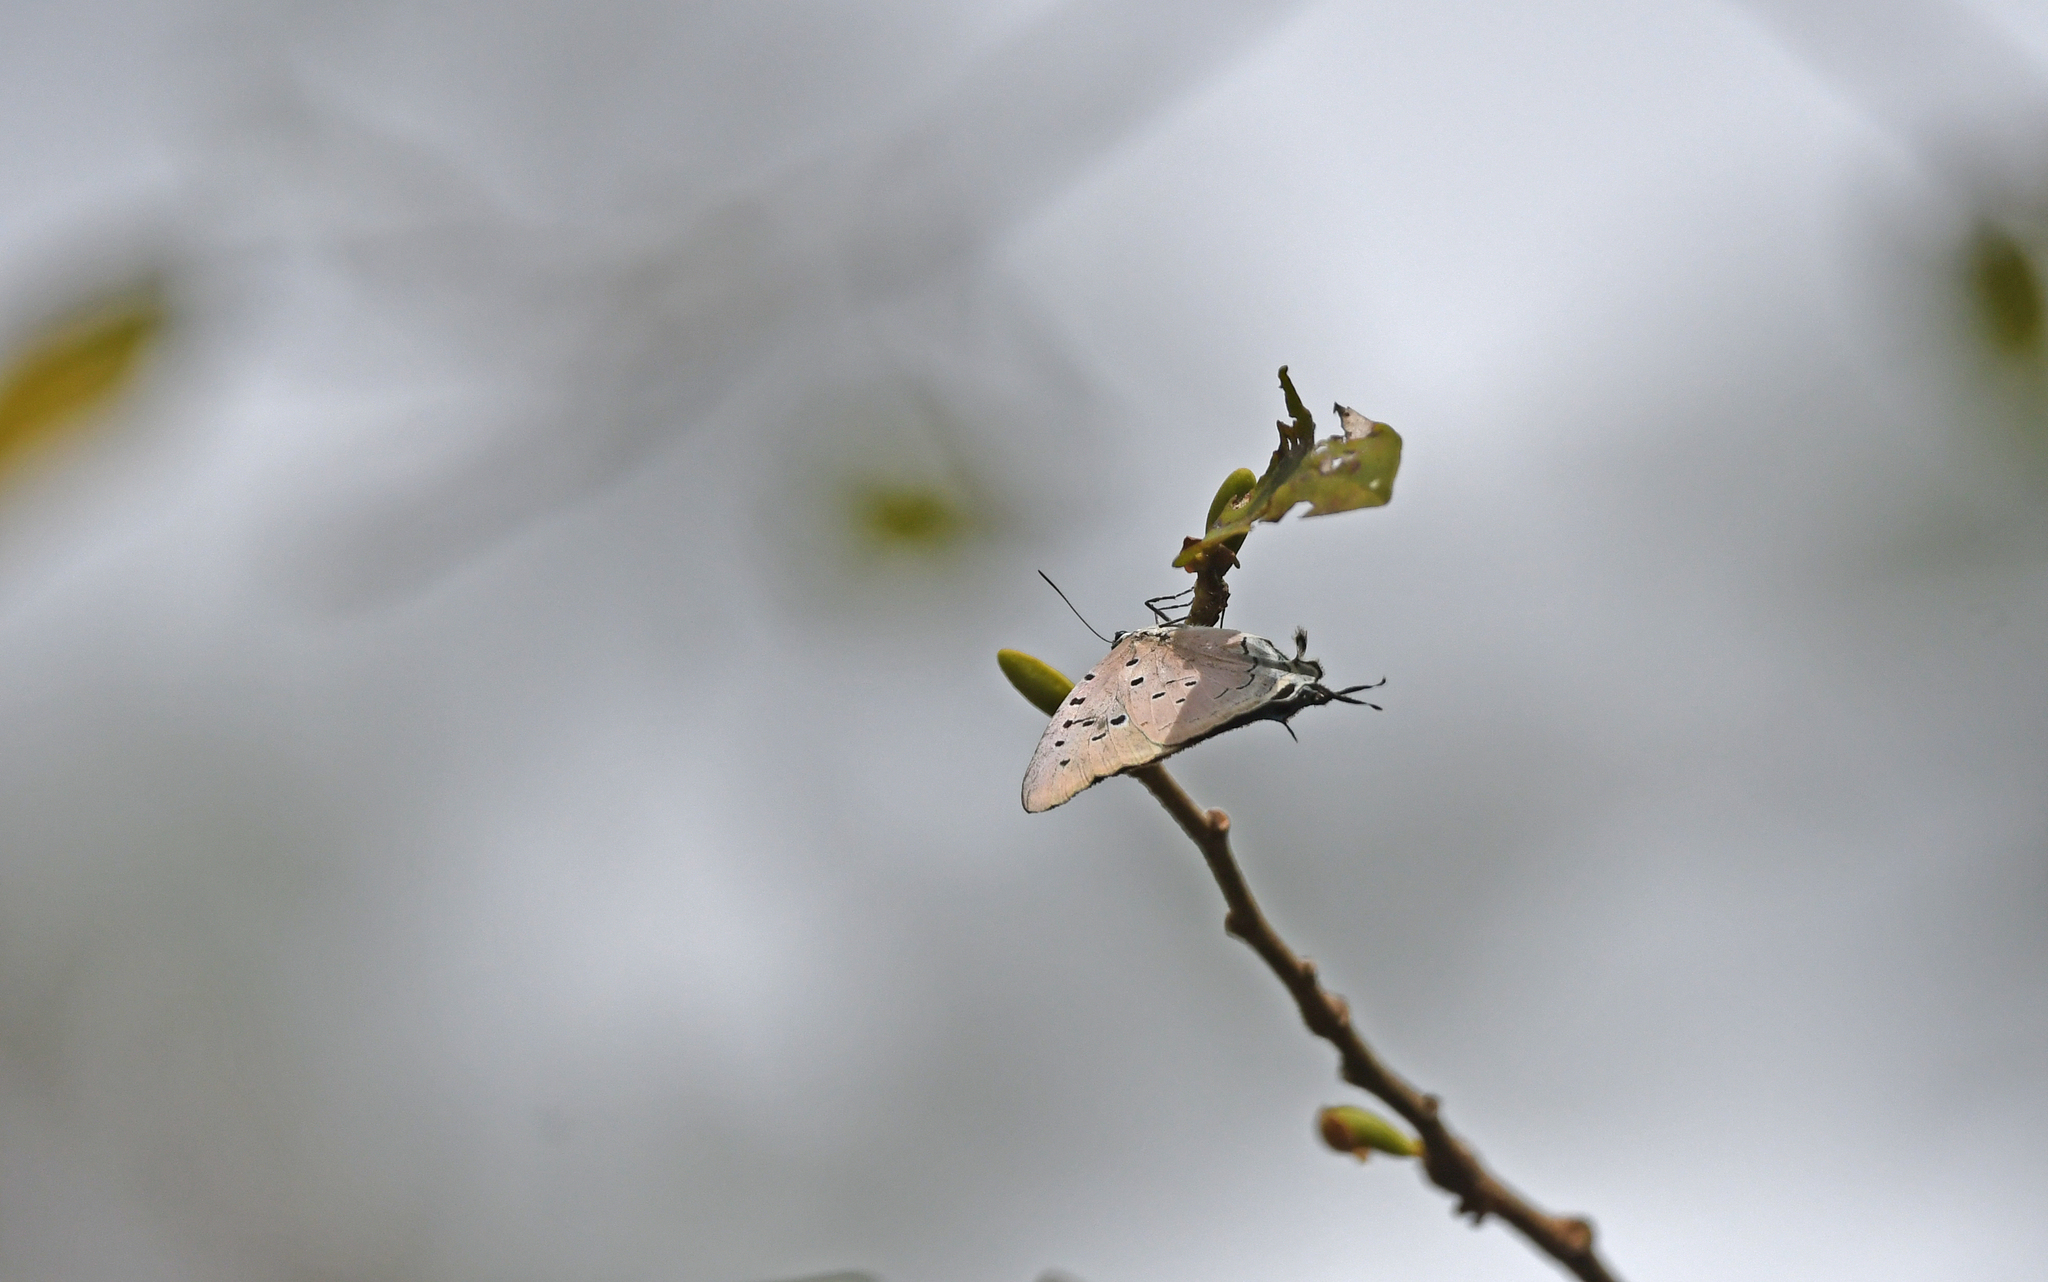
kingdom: Animalia
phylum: Arthropoda
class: Insecta
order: Lepidoptera
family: Lycaenidae
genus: Pseudolycaena
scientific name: Pseudolycaena marsyas
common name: Marsyas hairstreak
